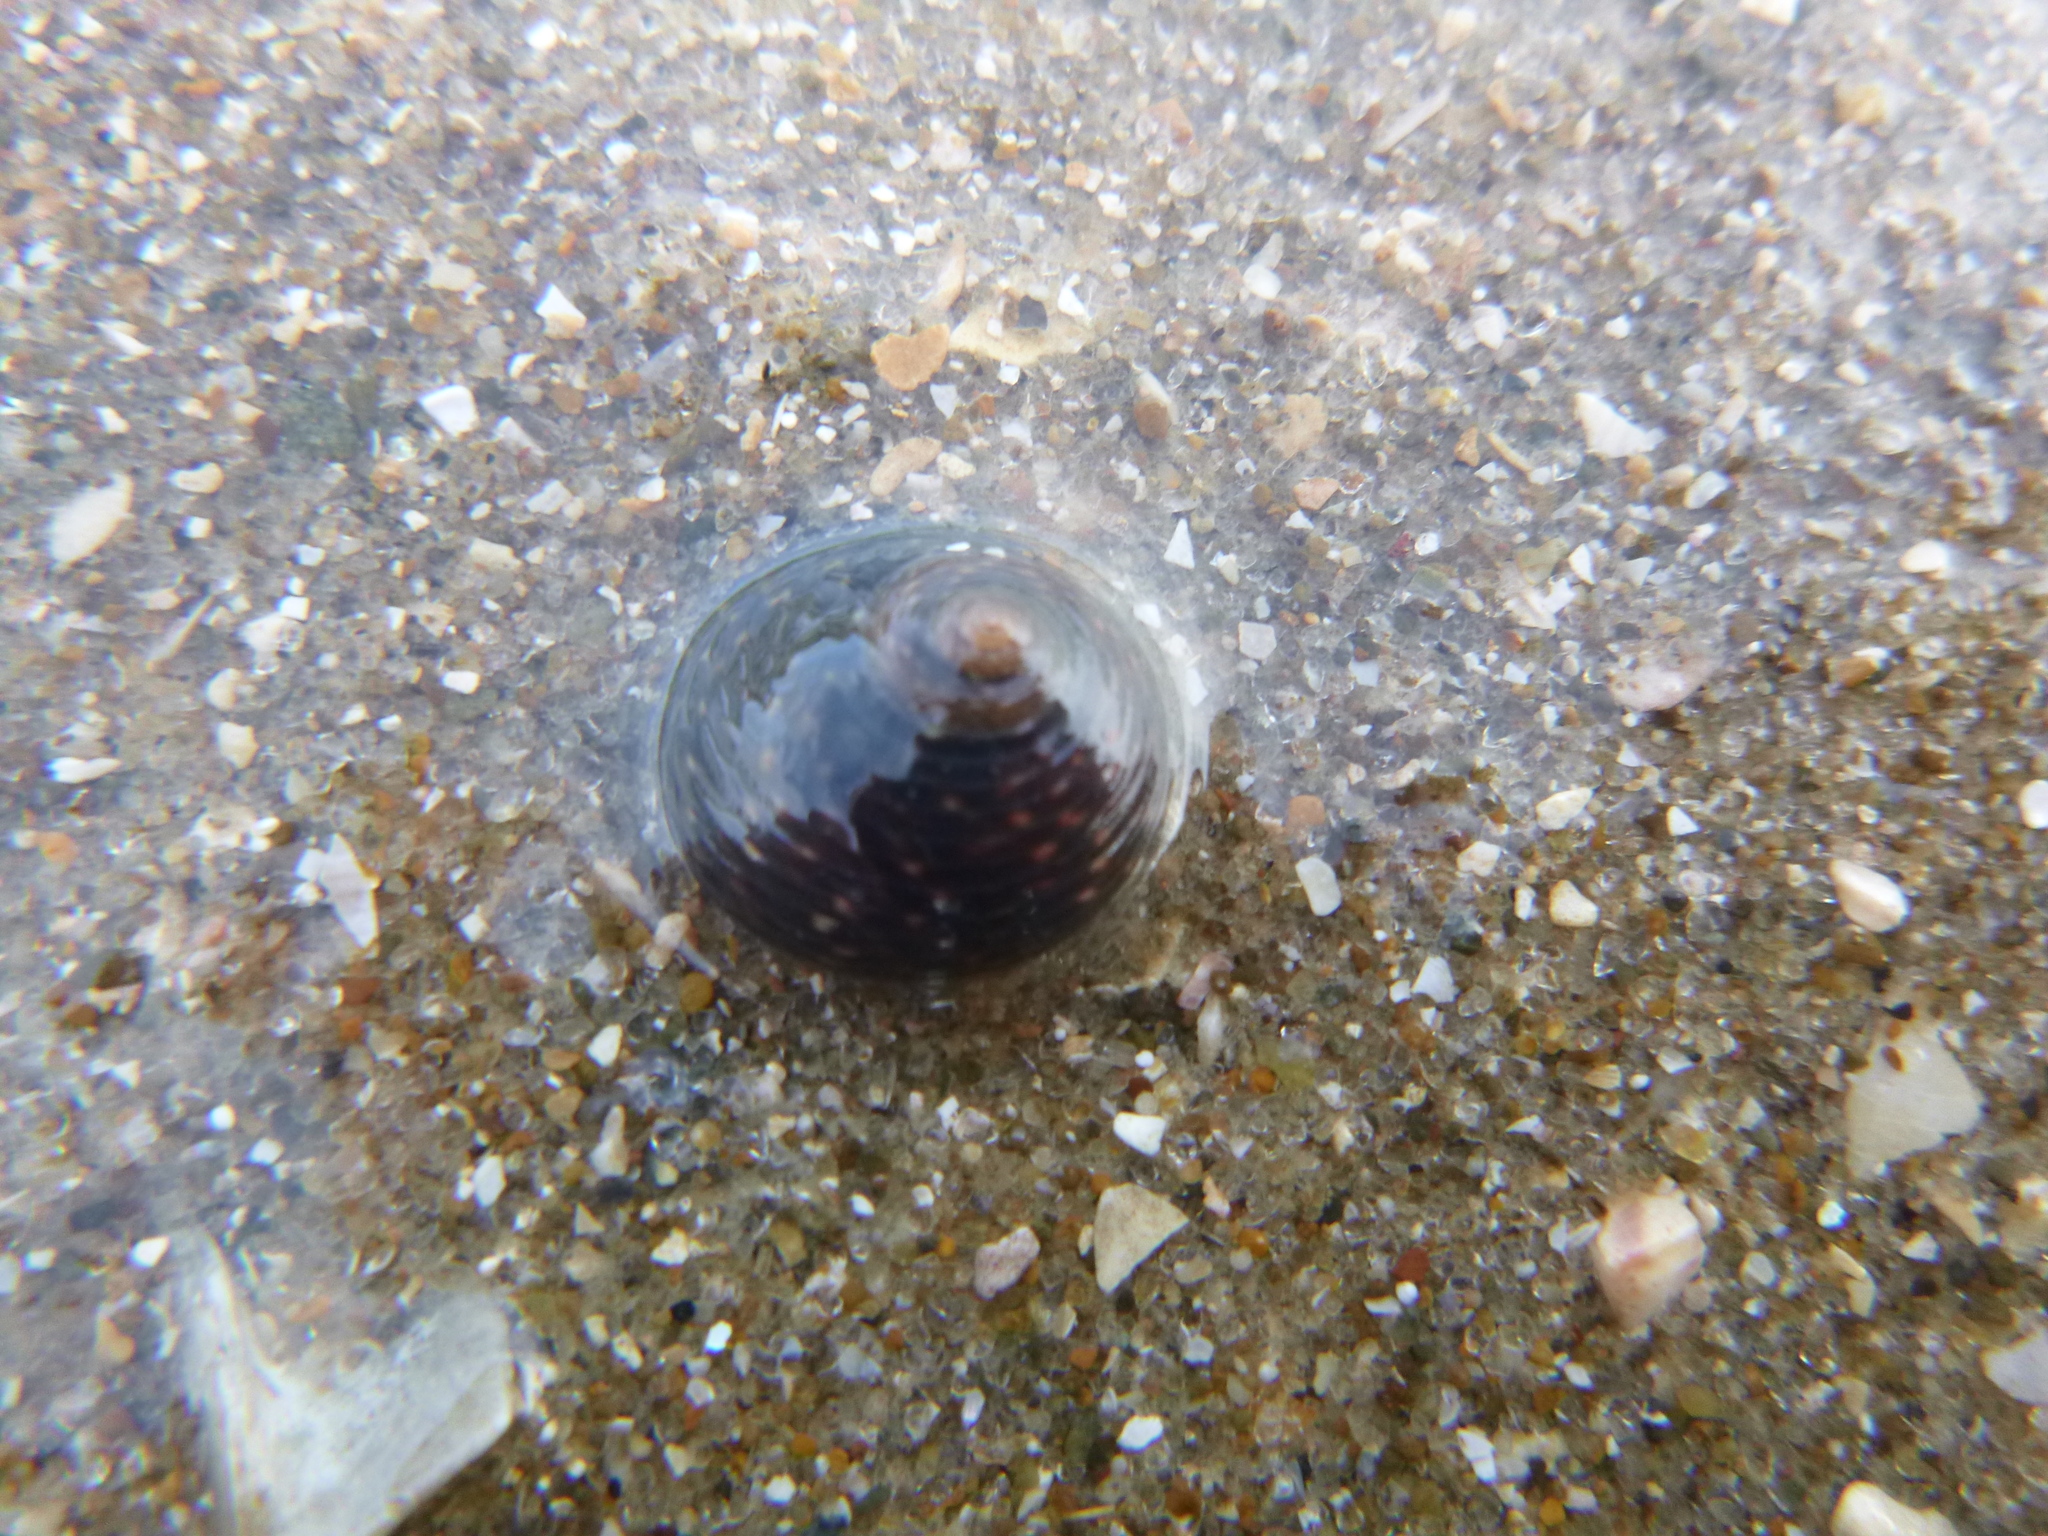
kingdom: Animalia
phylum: Mollusca
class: Gastropoda
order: Trochida
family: Trochidae
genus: Diloma
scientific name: Diloma zelandicum
